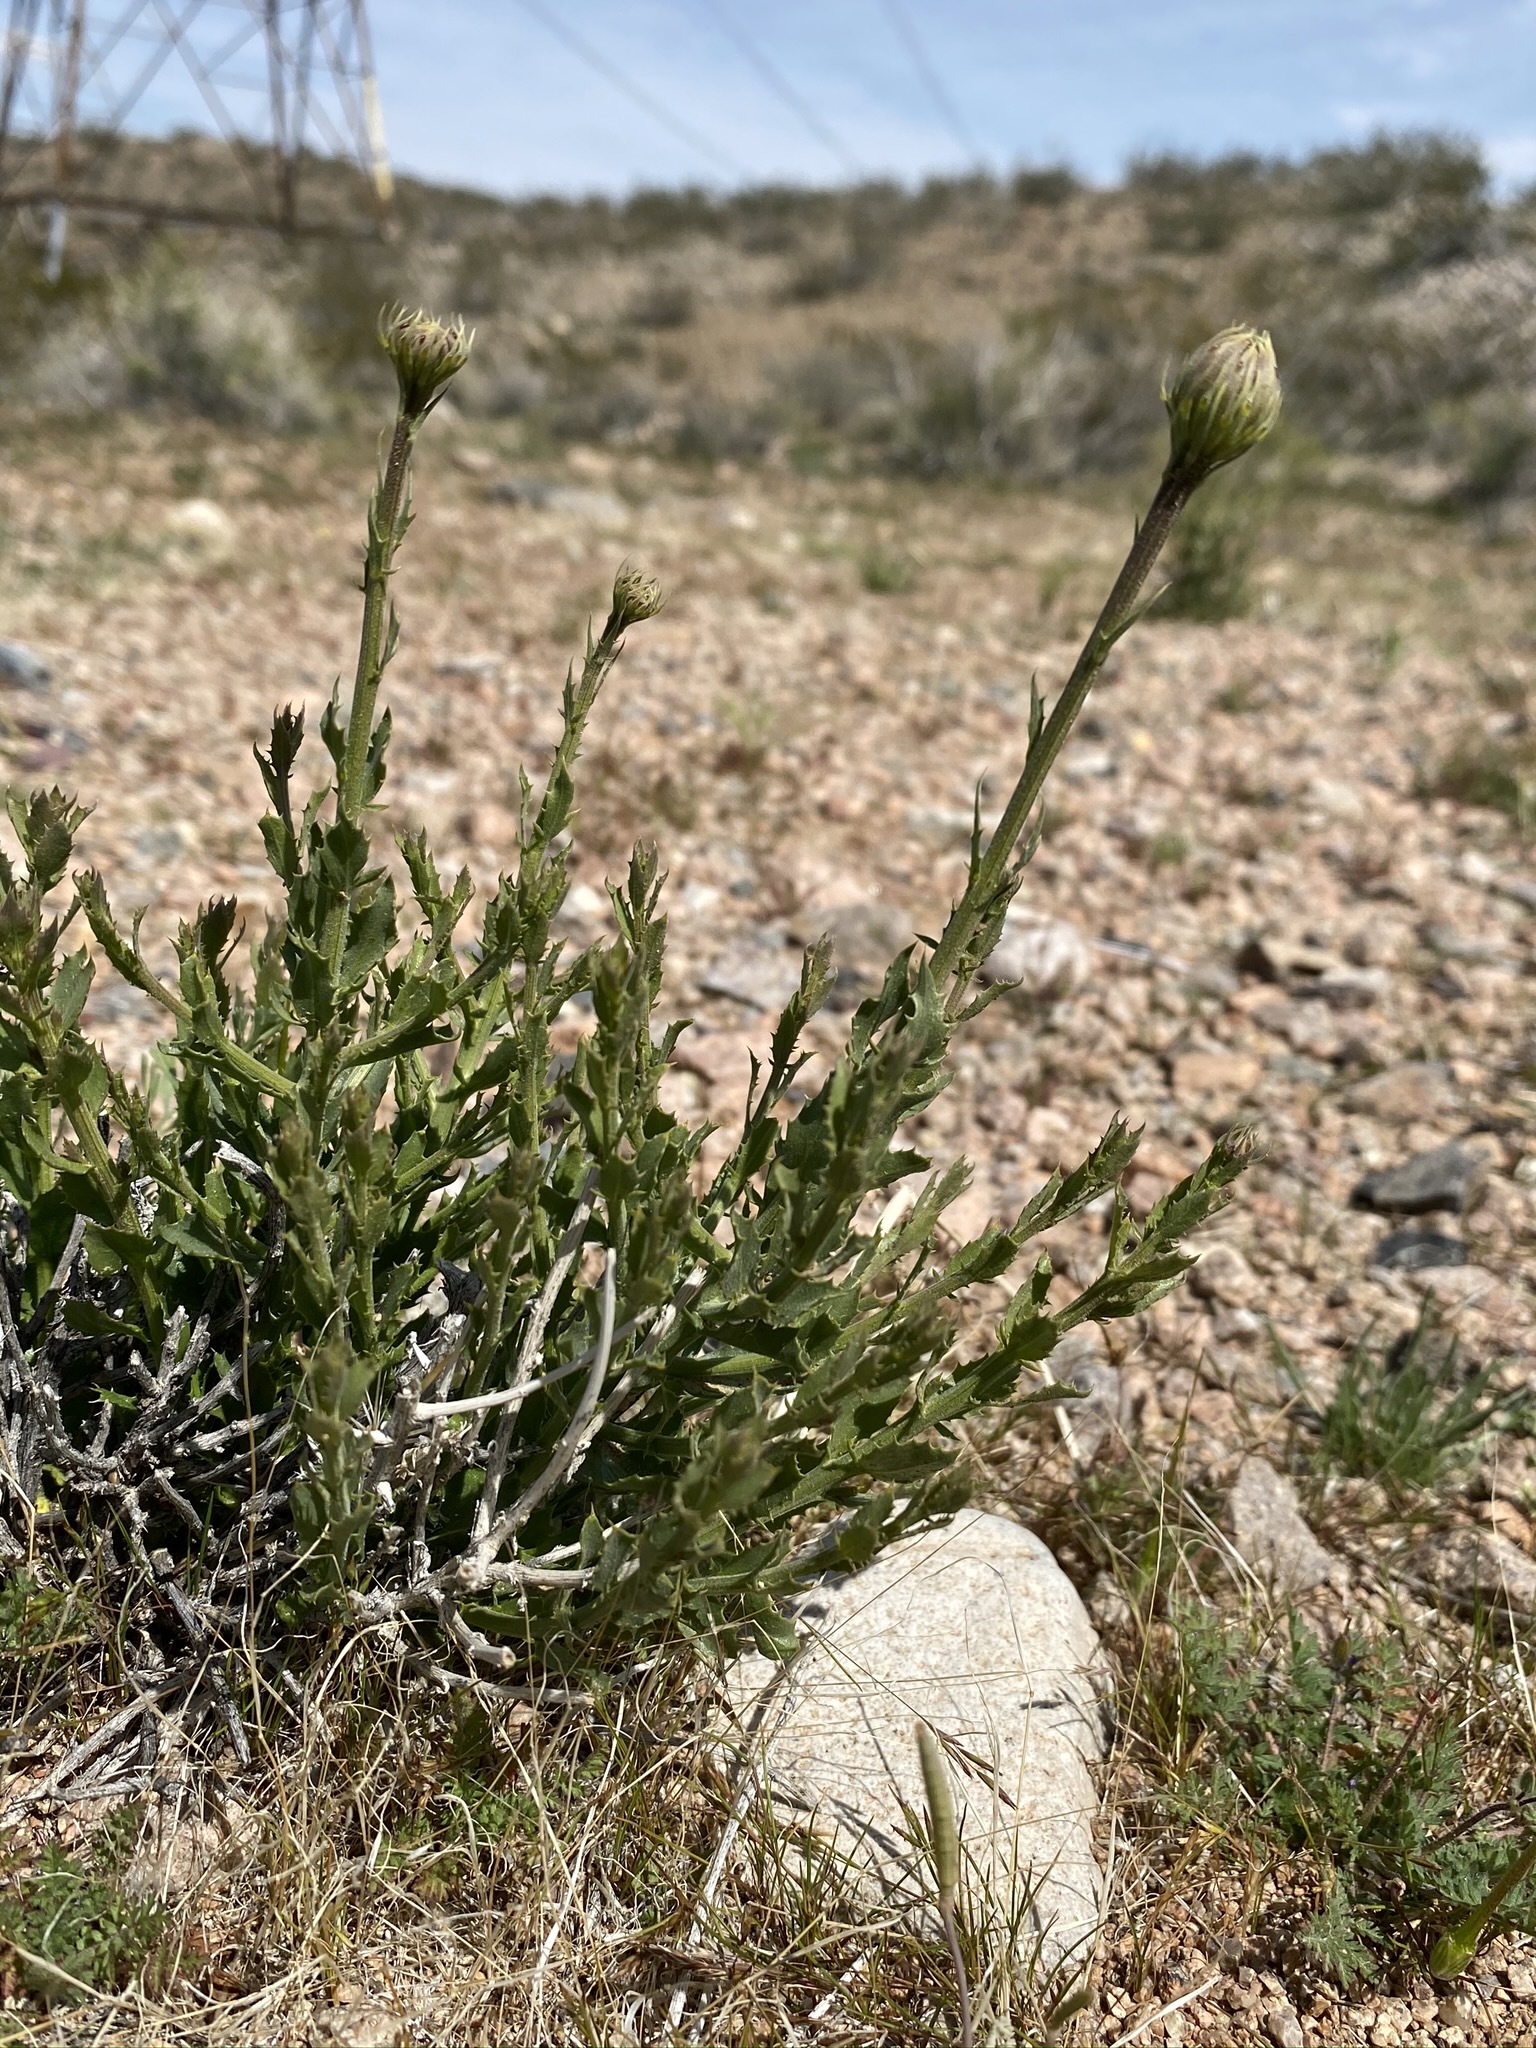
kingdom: Plantae
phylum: Tracheophyta
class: Magnoliopsida
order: Asterales
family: Asteraceae
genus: Adenophyllum
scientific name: Adenophyllum cooperi
